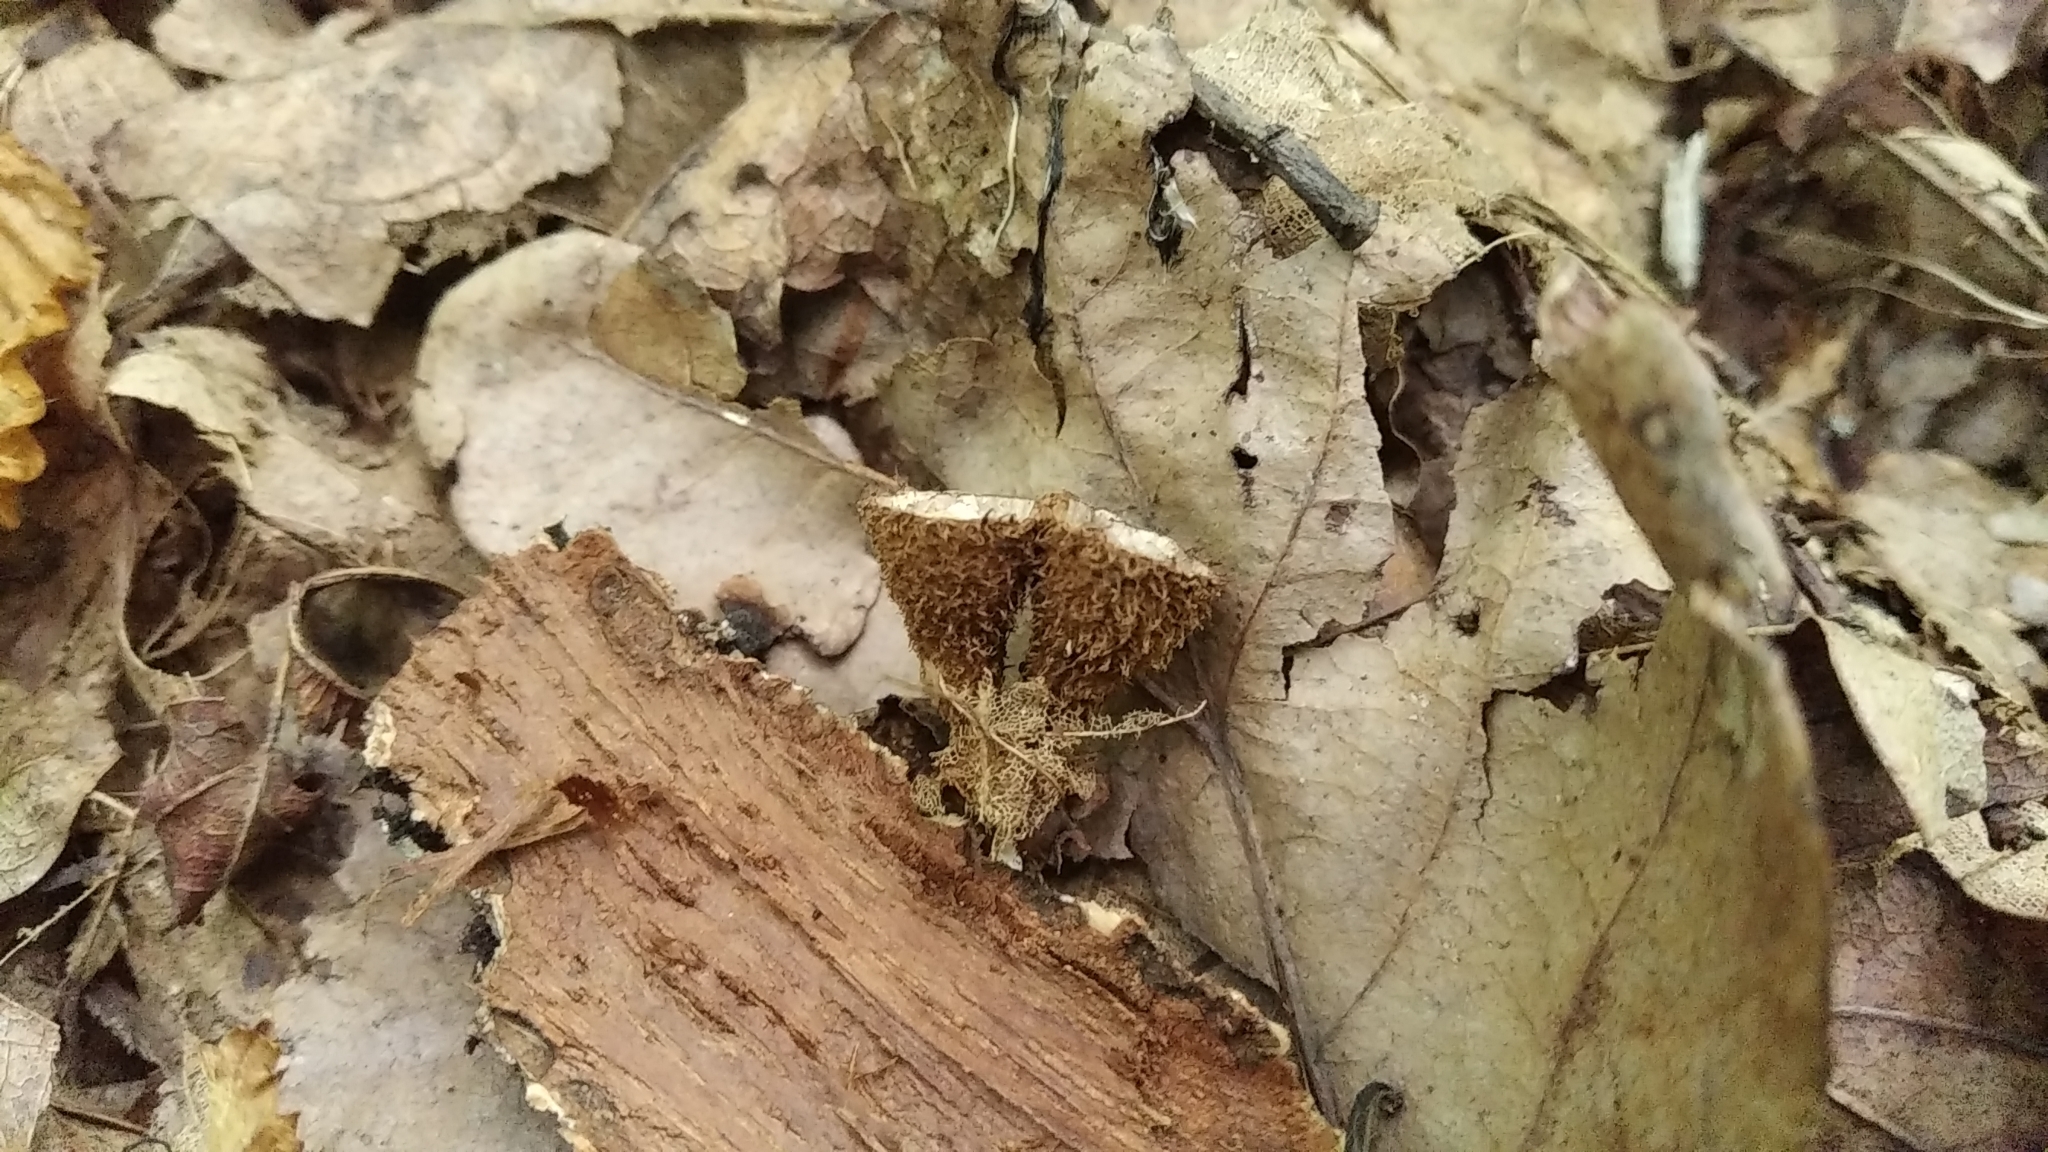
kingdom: Fungi
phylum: Basidiomycota
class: Agaricomycetes
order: Agaricales
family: Agaricaceae
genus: Cyathus
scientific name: Cyathus striatus
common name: Fluted bird's nest
